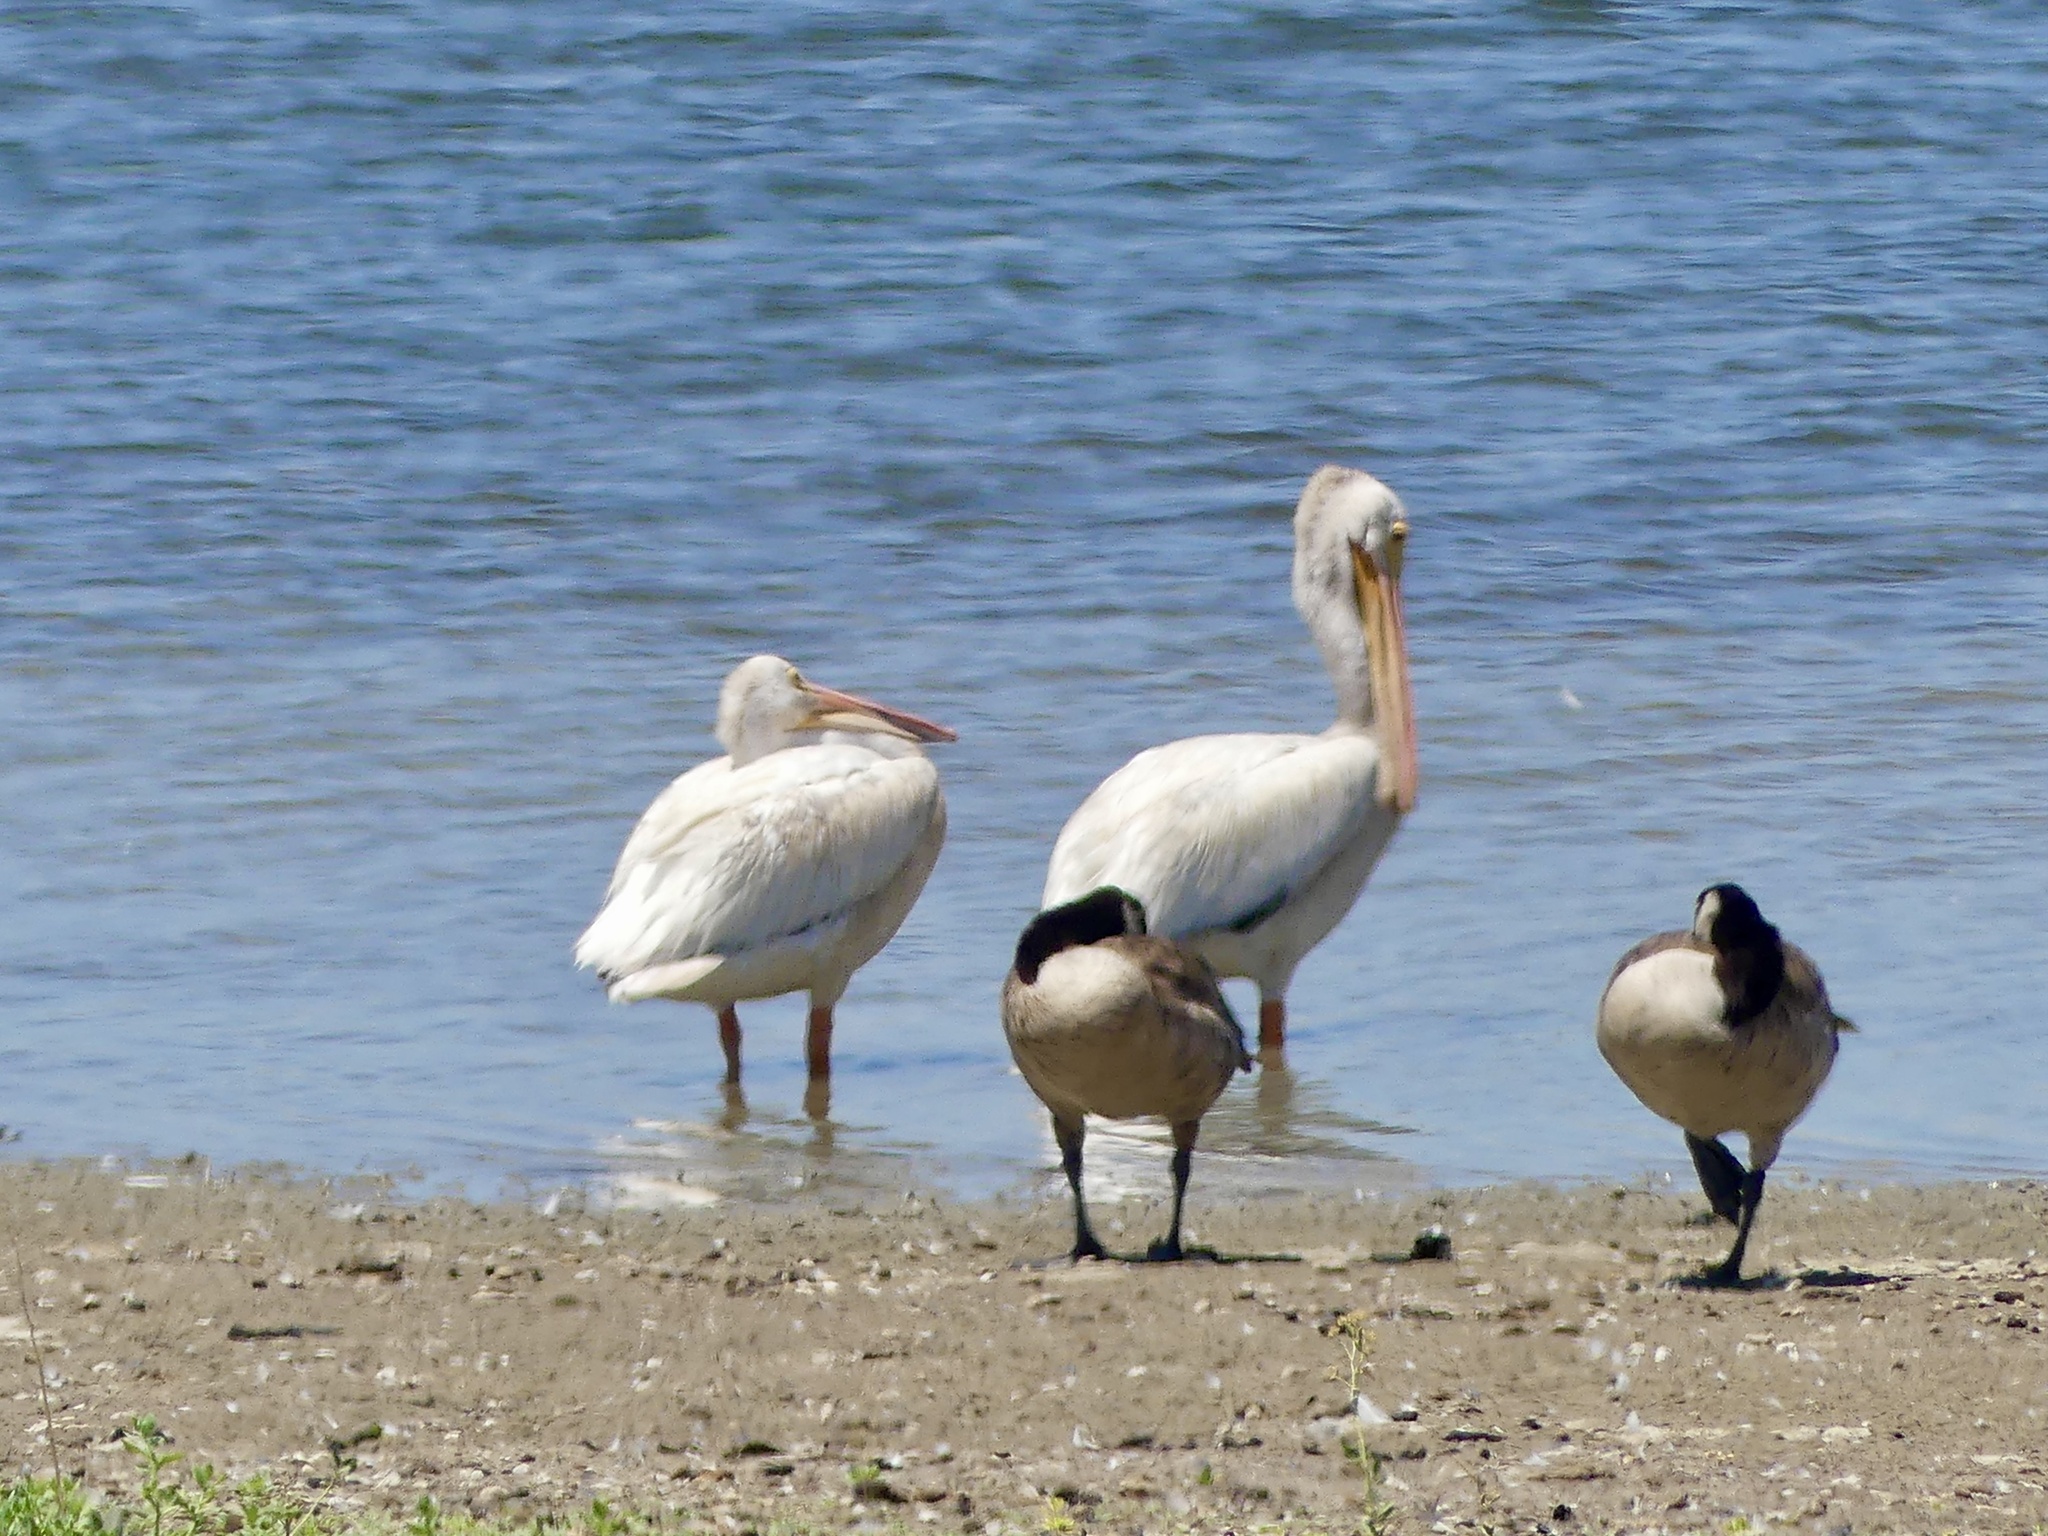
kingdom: Animalia
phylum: Chordata
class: Aves
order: Pelecaniformes
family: Pelecanidae
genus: Pelecanus
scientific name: Pelecanus erythrorhynchos
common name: American white pelican
